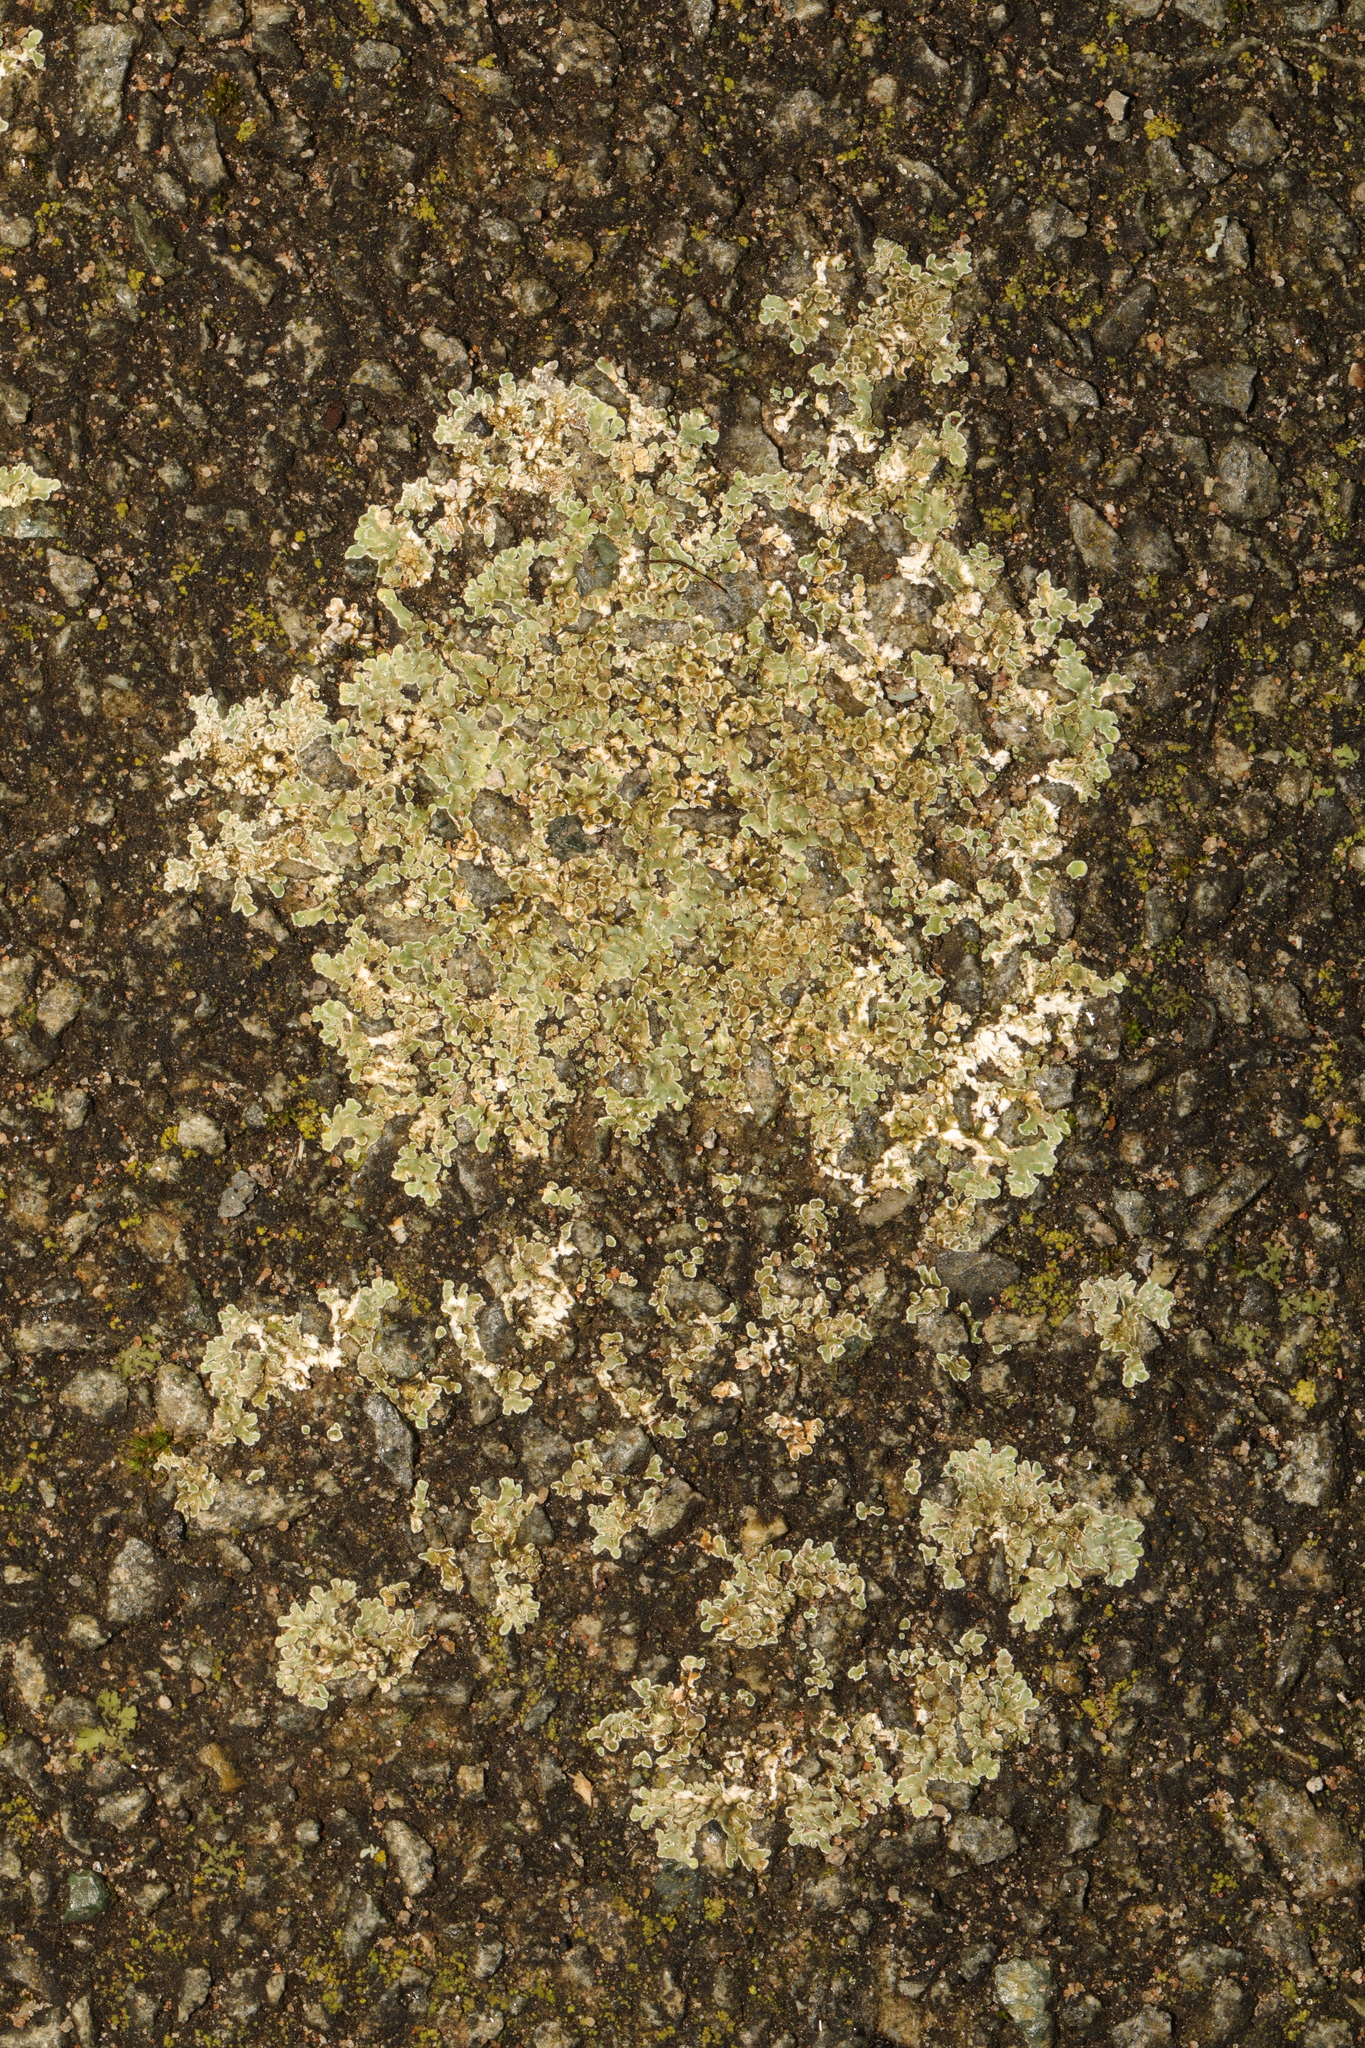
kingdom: Fungi
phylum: Ascomycota
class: Lecanoromycetes
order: Lecanorales
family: Lecanoraceae
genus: Protoparmeliopsis
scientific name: Protoparmeliopsis muralis
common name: Stonewall rim lichen
